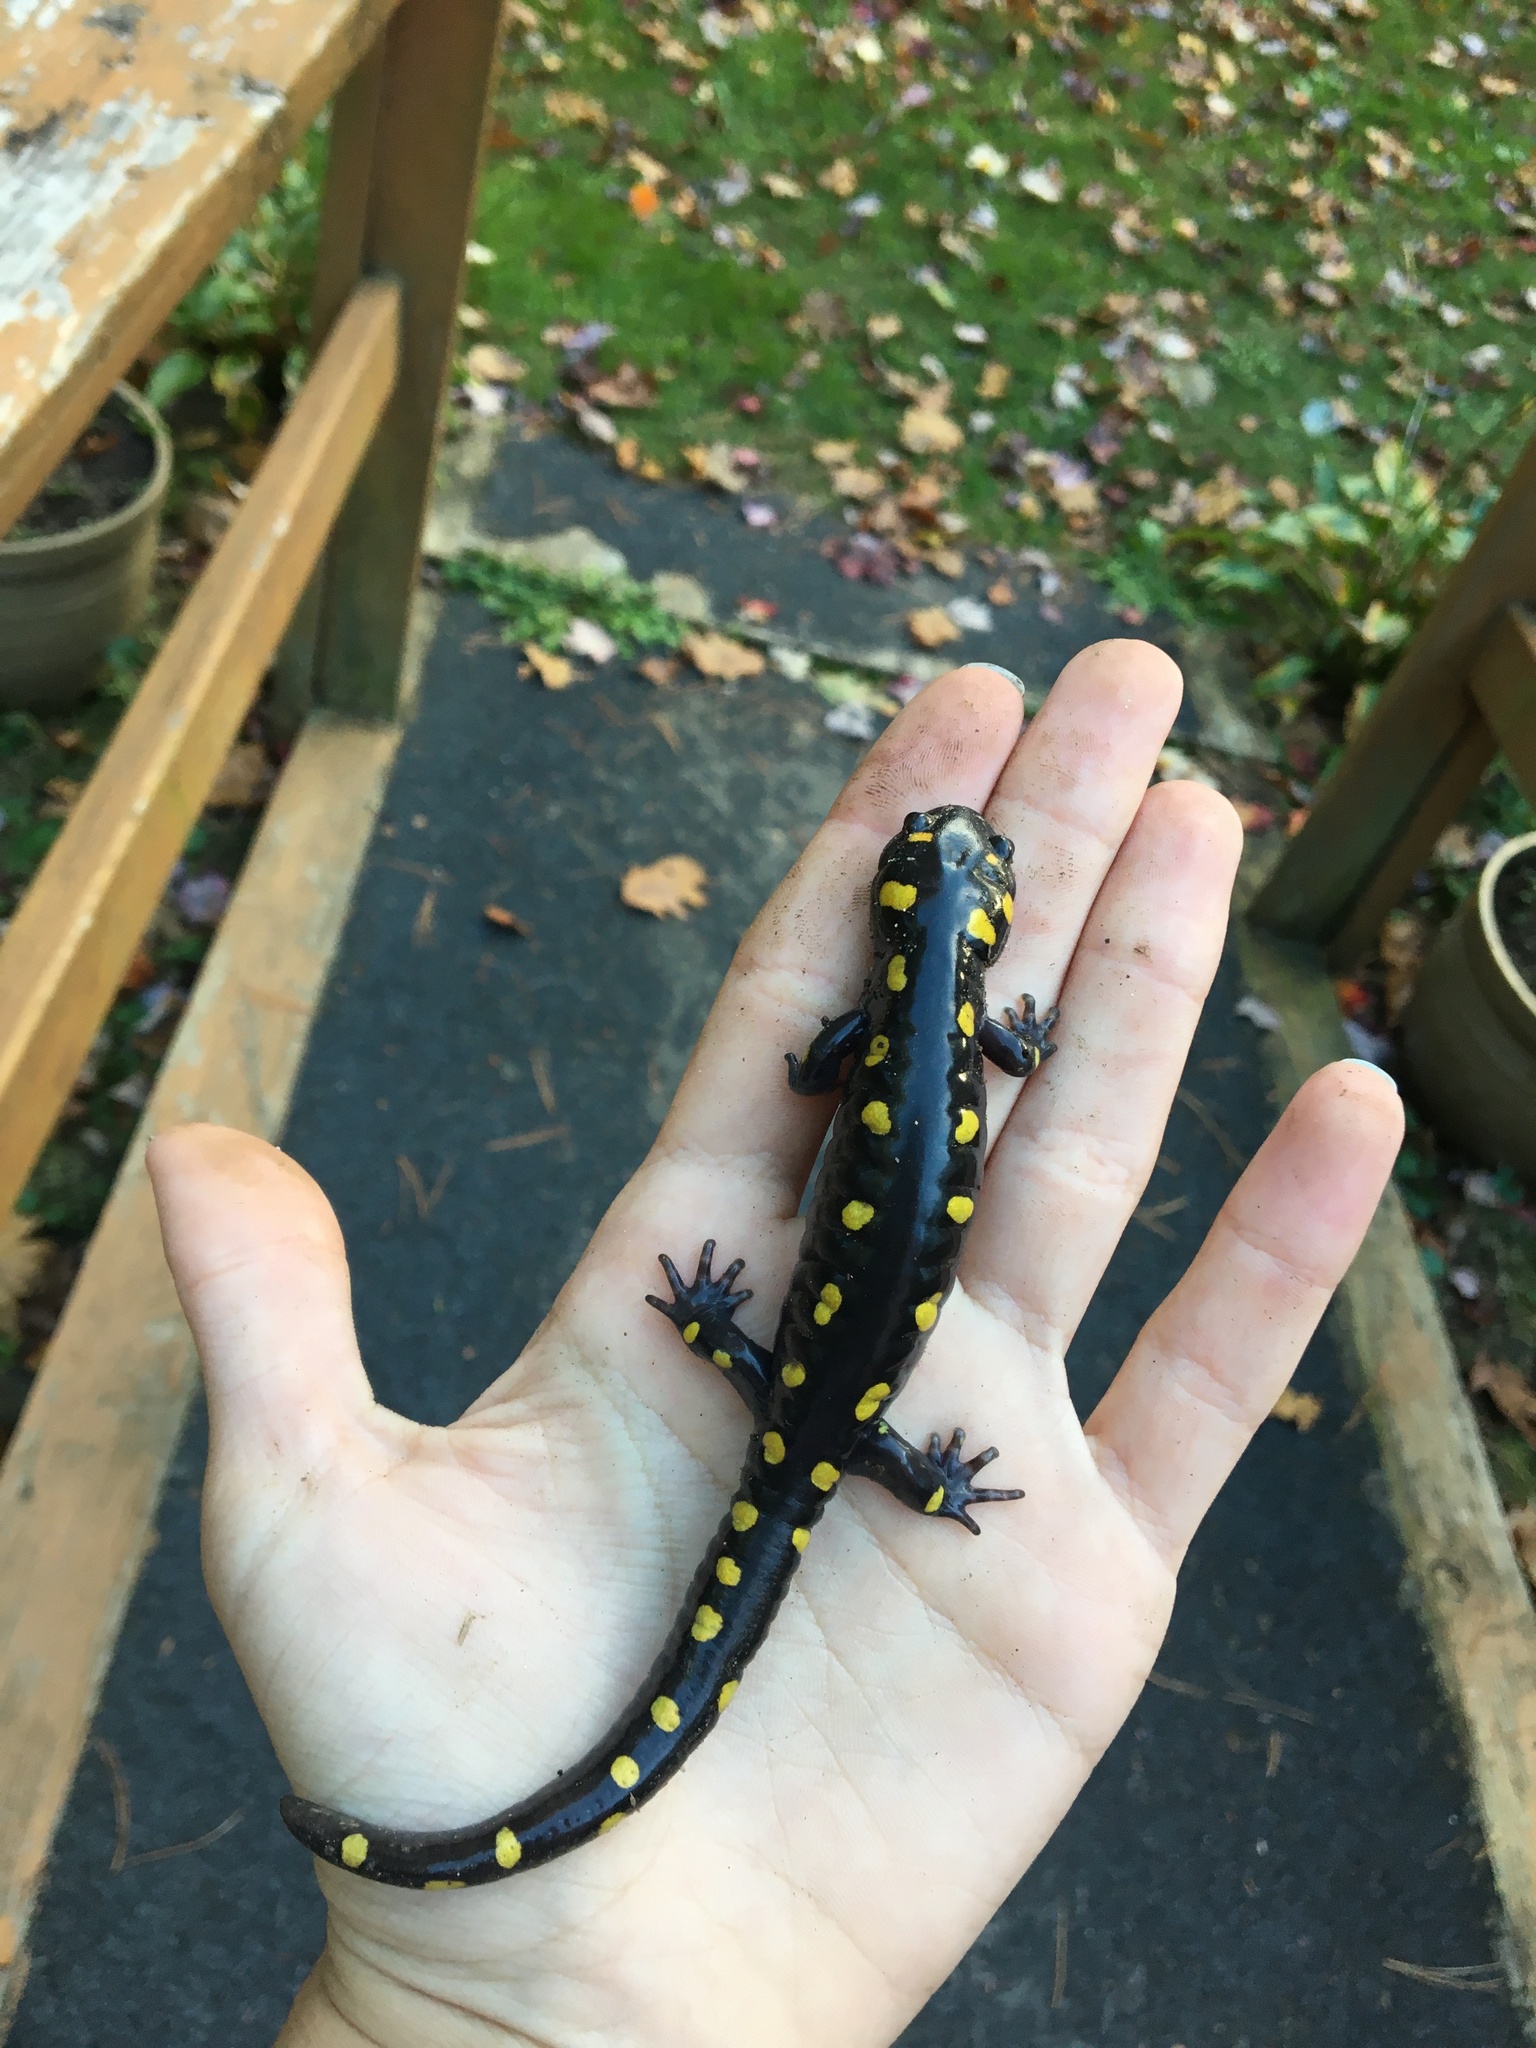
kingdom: Animalia
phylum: Chordata
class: Amphibia
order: Caudata
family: Ambystomatidae
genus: Ambystoma
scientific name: Ambystoma maculatum
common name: Spotted salamander
